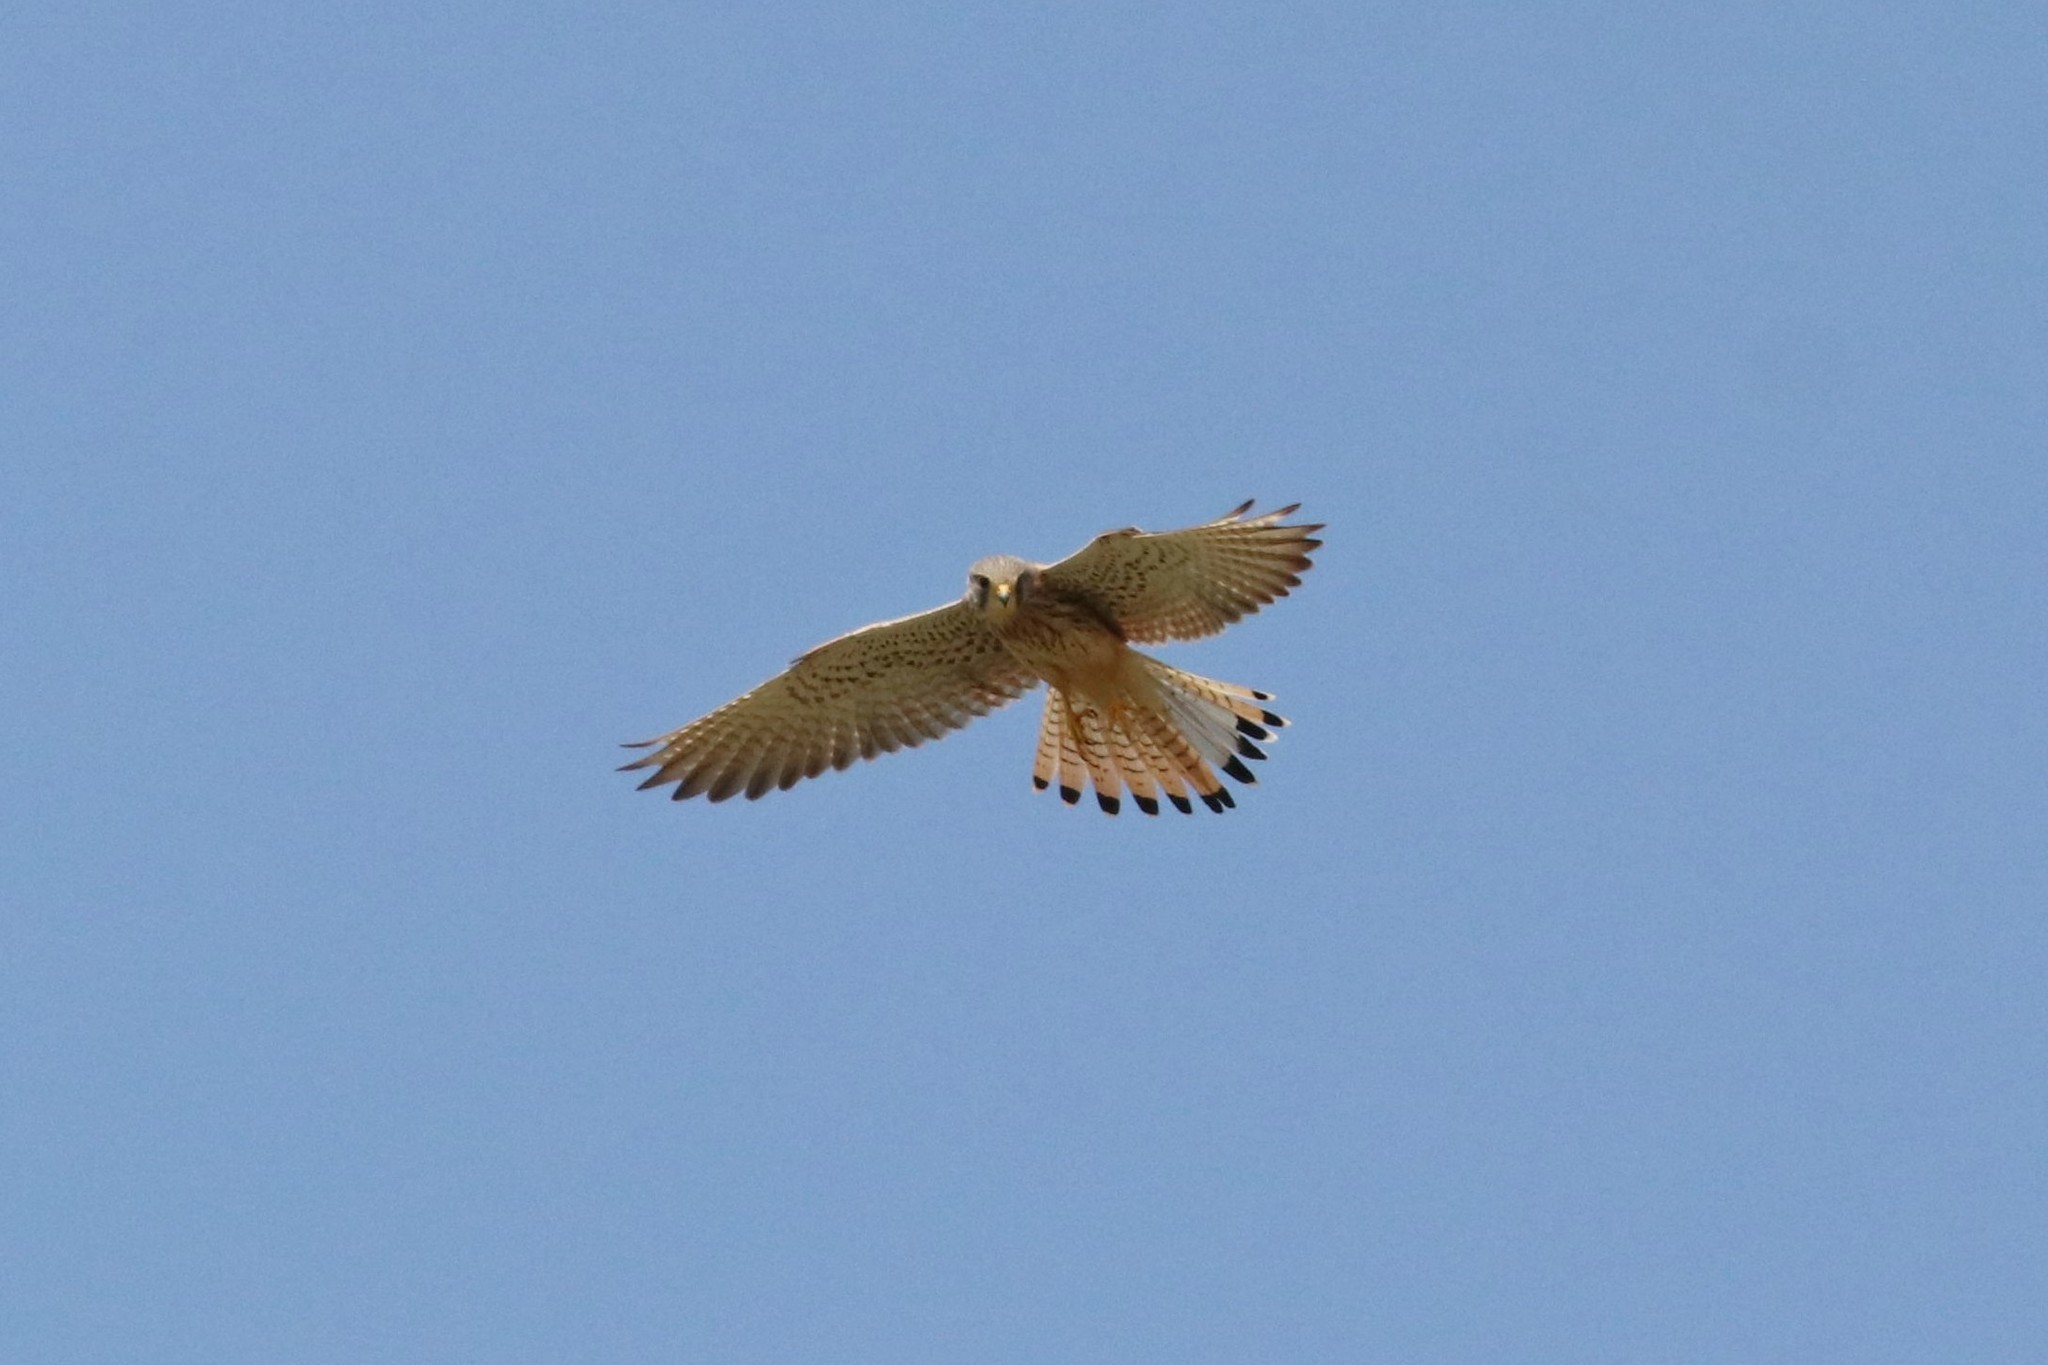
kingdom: Animalia
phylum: Chordata
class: Aves
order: Falconiformes
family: Falconidae
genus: Falco
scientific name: Falco tinnunculus
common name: Common kestrel
